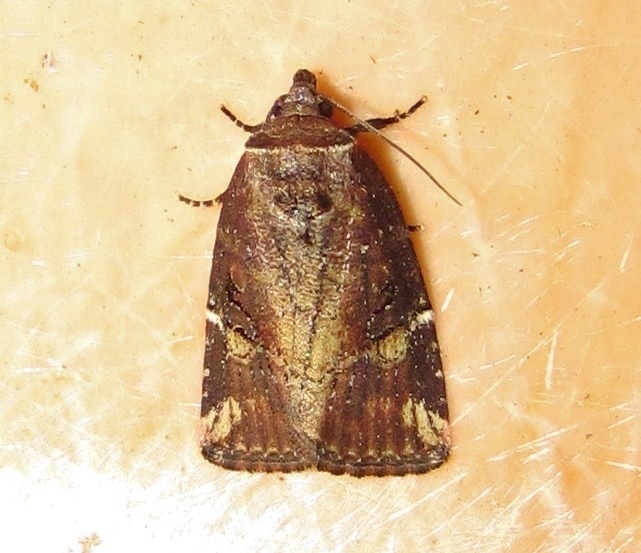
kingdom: Animalia
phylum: Arthropoda
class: Insecta
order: Lepidoptera
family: Noctuidae
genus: Elaphria
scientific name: Elaphria versicolor
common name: Fir harlequin
